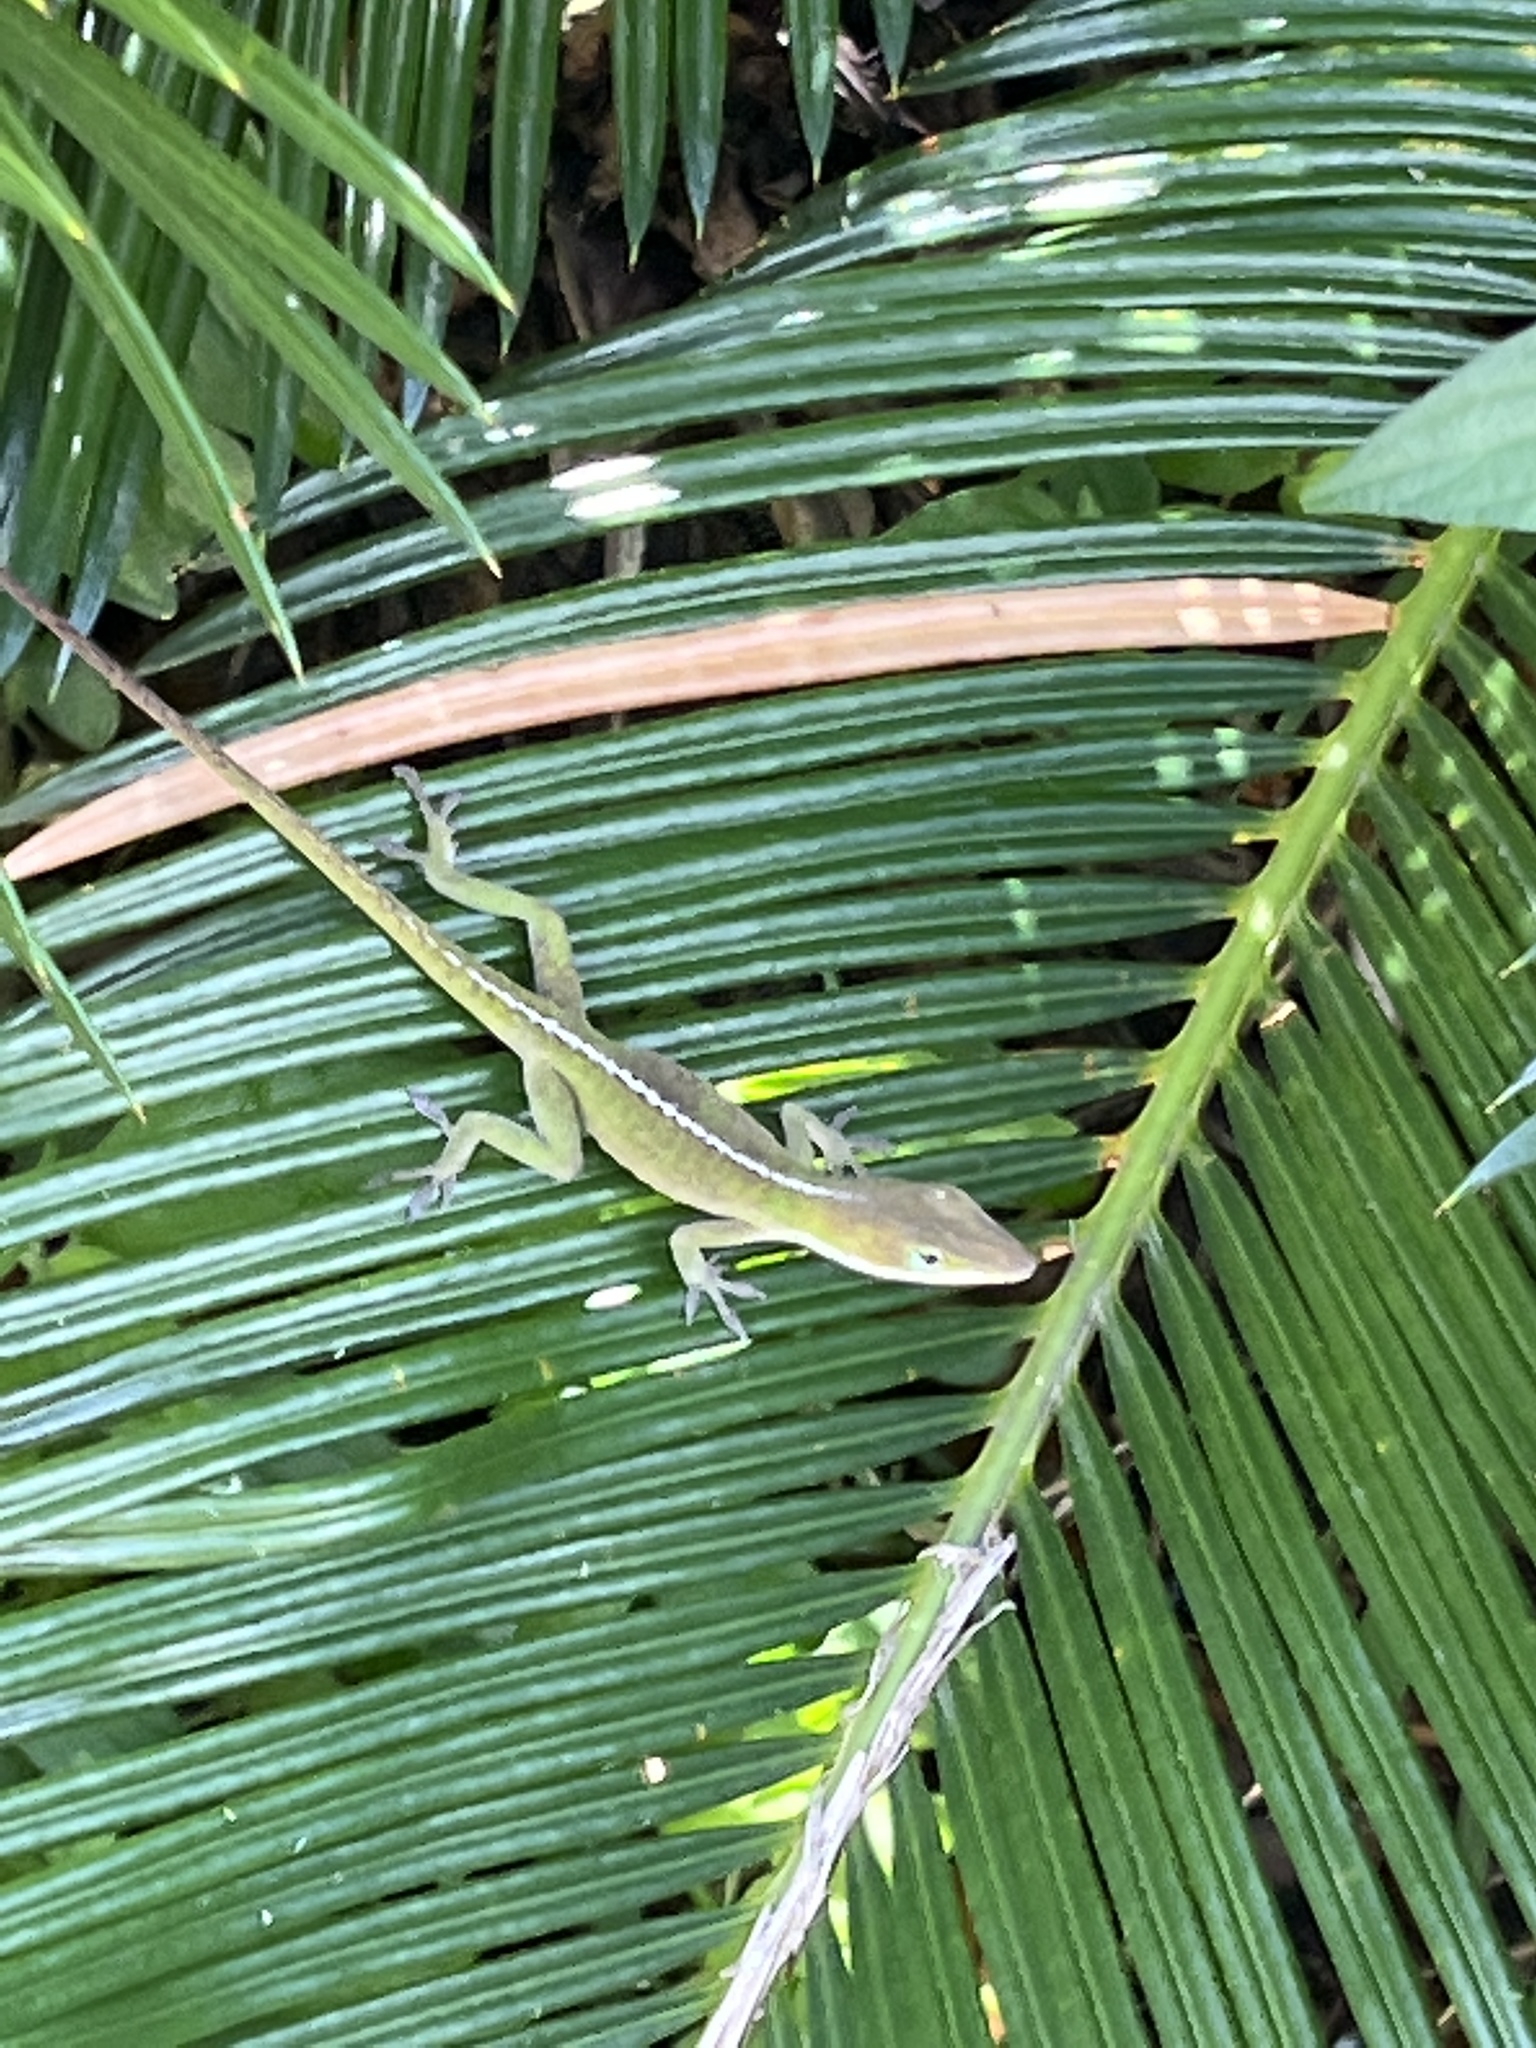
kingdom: Animalia
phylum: Chordata
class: Squamata
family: Dactyloidae
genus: Anolis
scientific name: Anolis carolinensis
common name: Green anole
